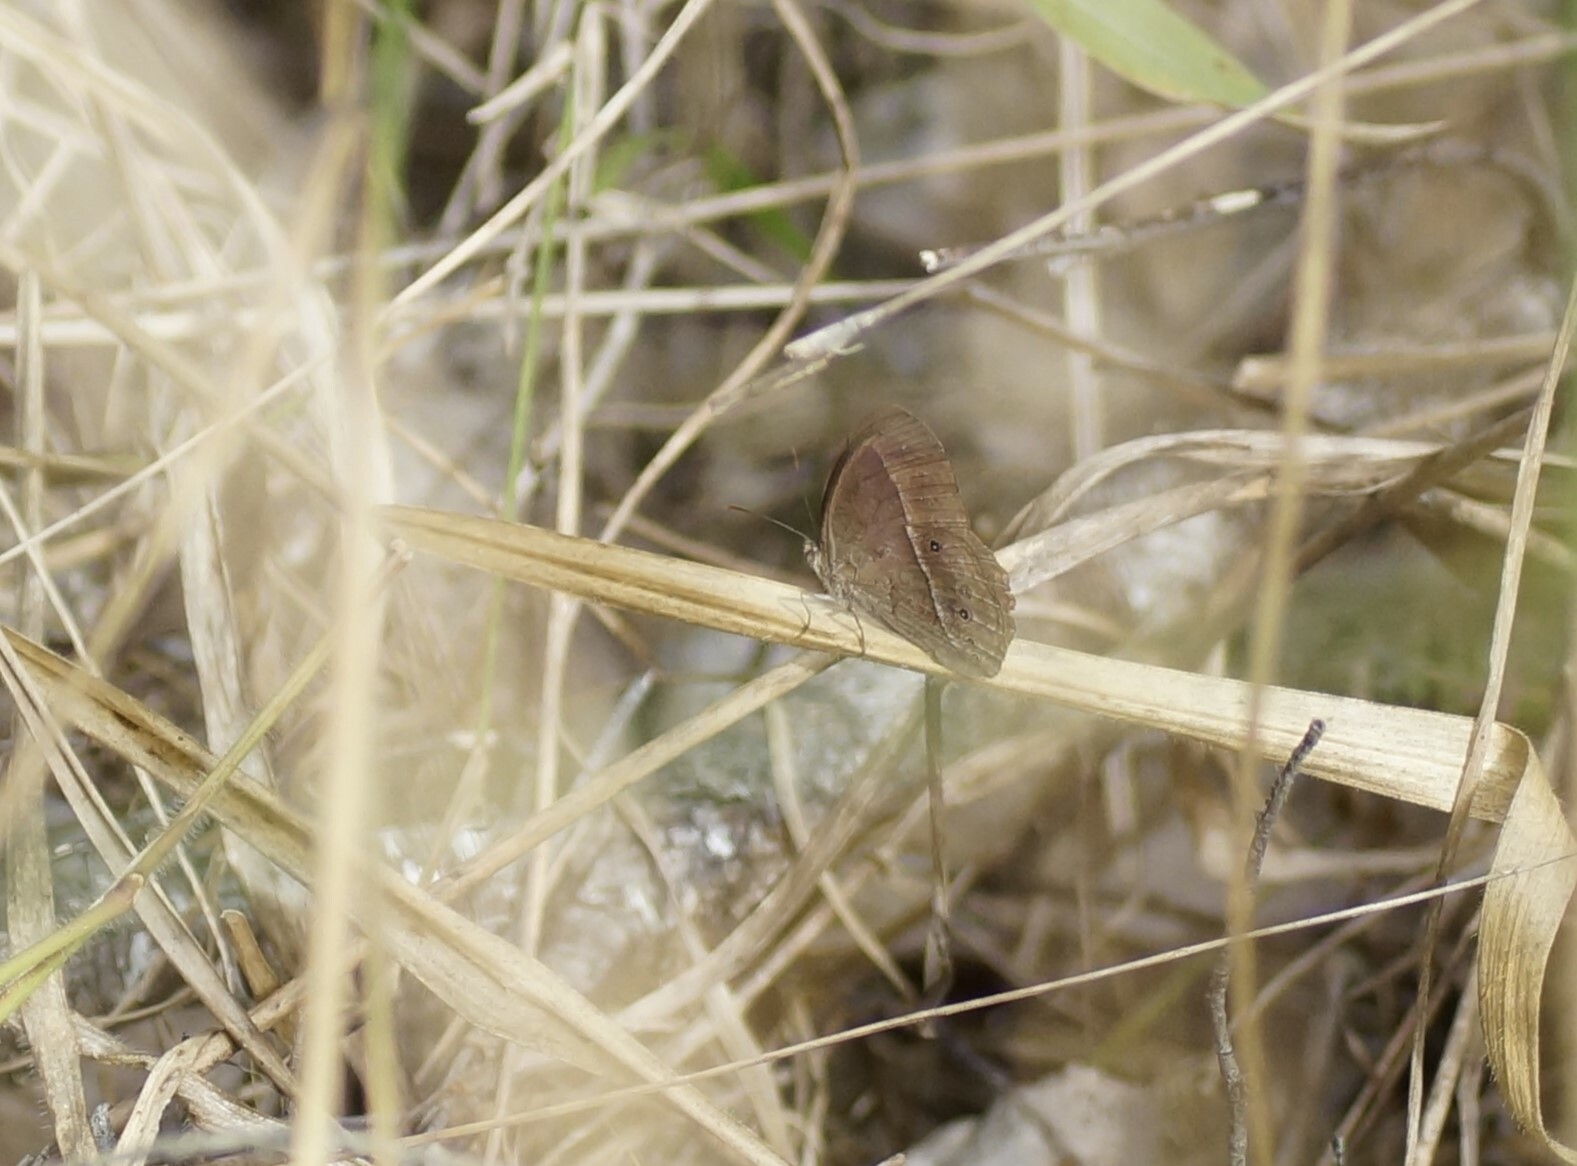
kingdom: Animalia
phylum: Arthropoda
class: Insecta
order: Lepidoptera
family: Nymphalidae
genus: Mycalesis
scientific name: Mycalesis perseus
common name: Dingy bushbrown
